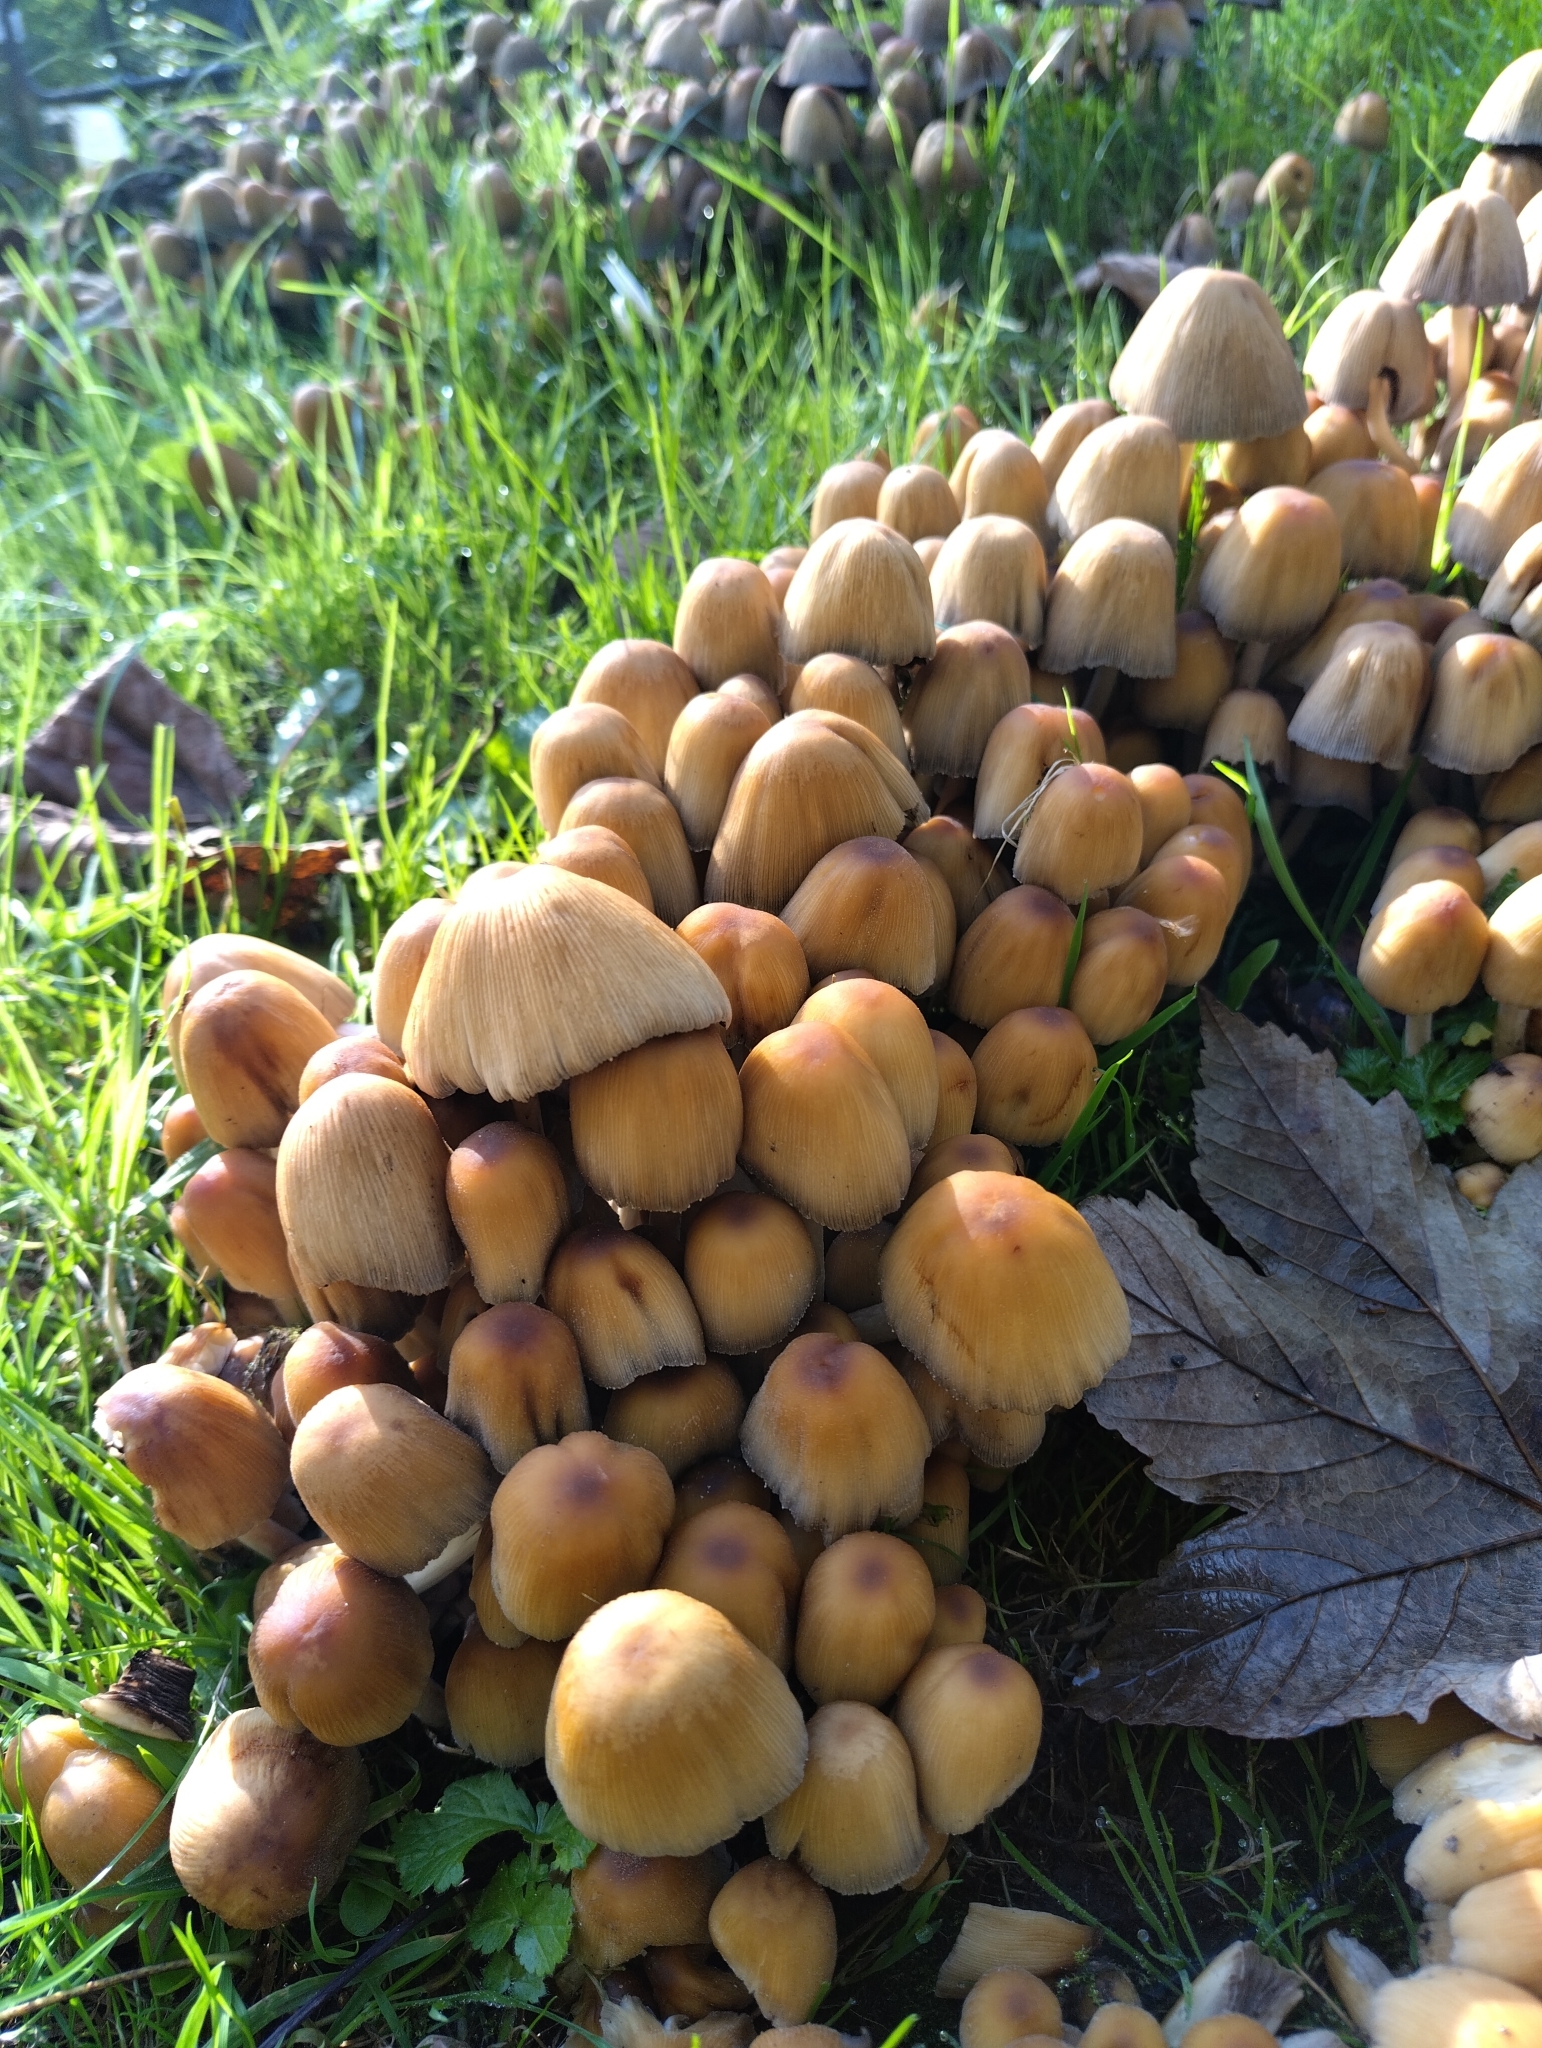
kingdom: Fungi
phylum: Basidiomycota
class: Agaricomycetes
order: Agaricales
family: Psathyrellaceae
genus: Coprinellus
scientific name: Coprinellus micaceus
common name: Glistening ink-cap
